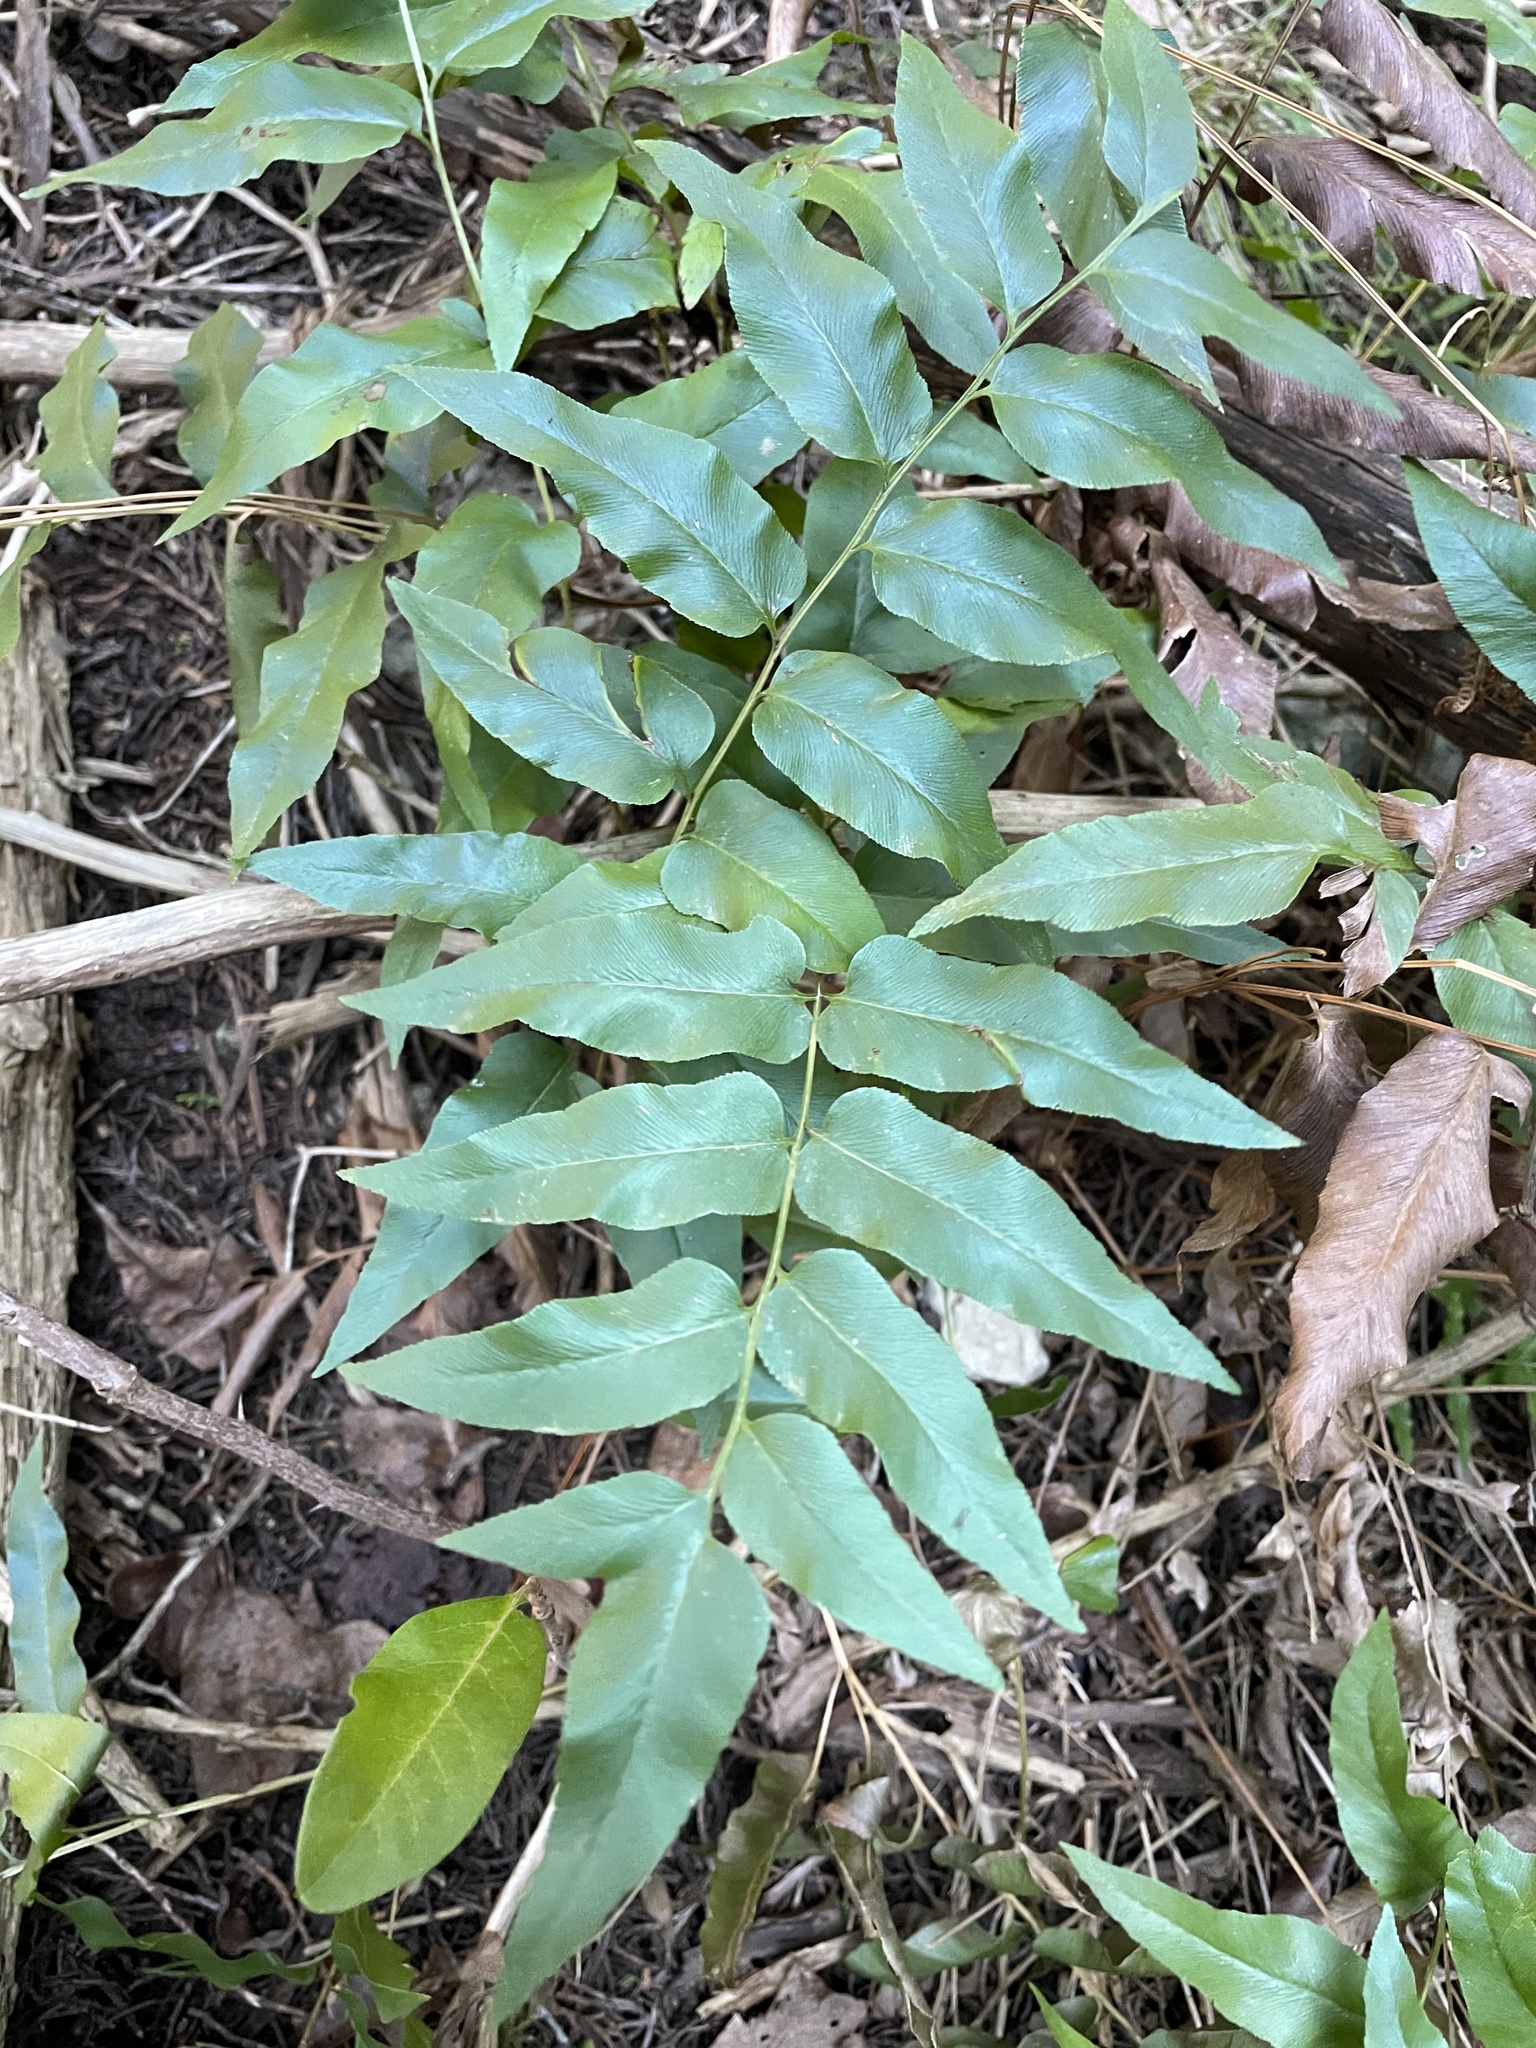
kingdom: Plantae
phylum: Tracheophyta
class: Polypodiopsida
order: Schizaeales
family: Anemiaceae
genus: Anemia
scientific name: Anemia mexicana
